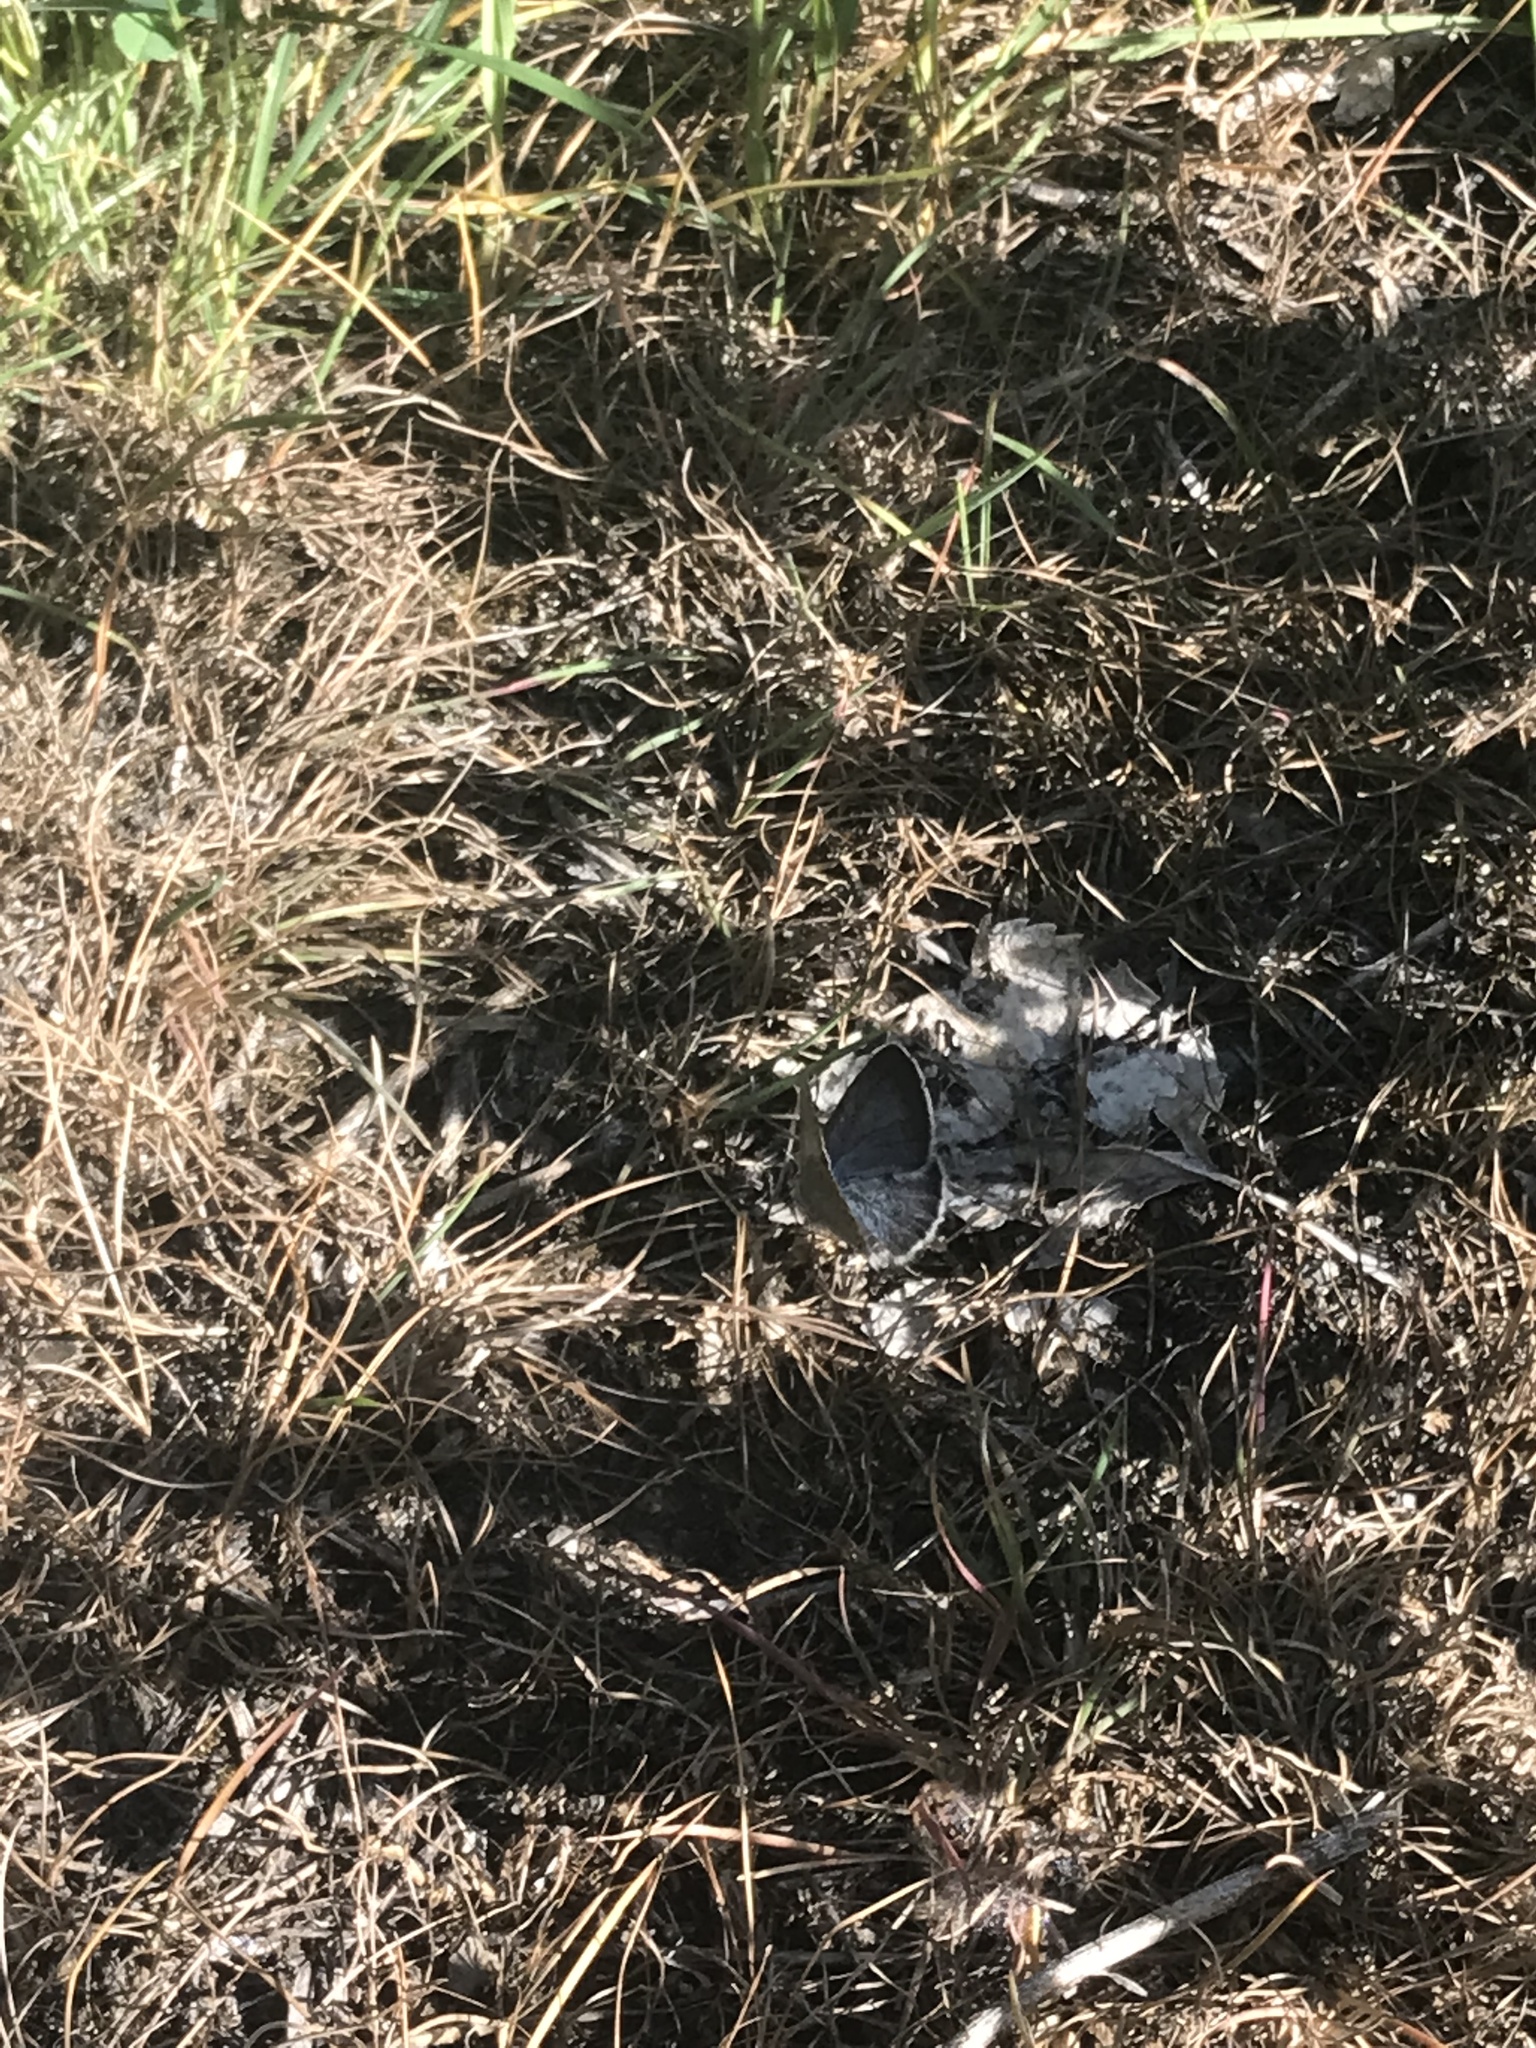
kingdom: Animalia
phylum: Arthropoda
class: Insecta
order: Lepidoptera
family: Lycaenidae
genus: Glaucopsyche
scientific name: Glaucopsyche lygdamus
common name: Silvery blue
